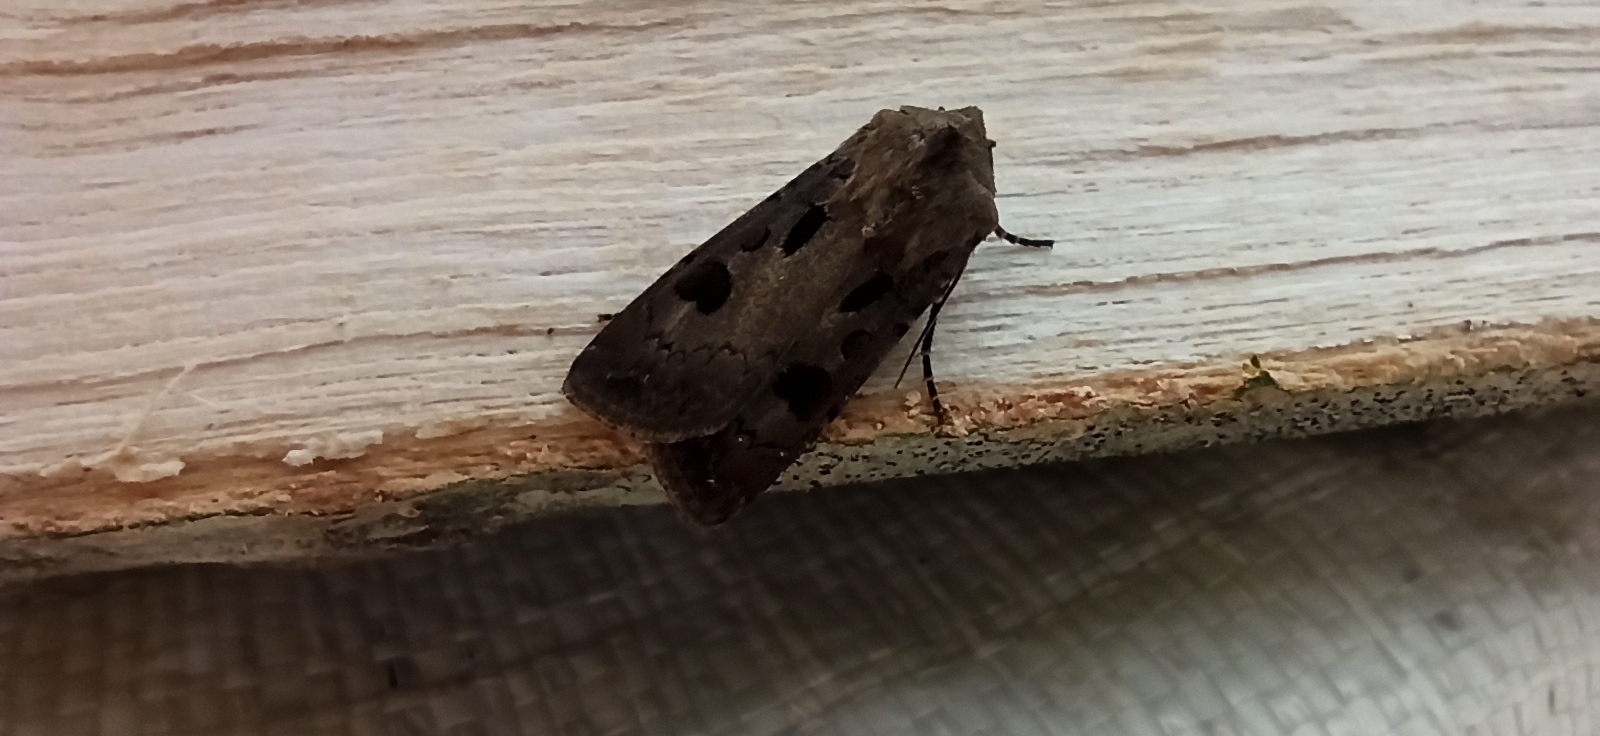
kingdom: Animalia
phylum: Arthropoda
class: Insecta
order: Lepidoptera
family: Noctuidae
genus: Agrotis
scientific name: Agrotis exclamationis
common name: Heart and dart
